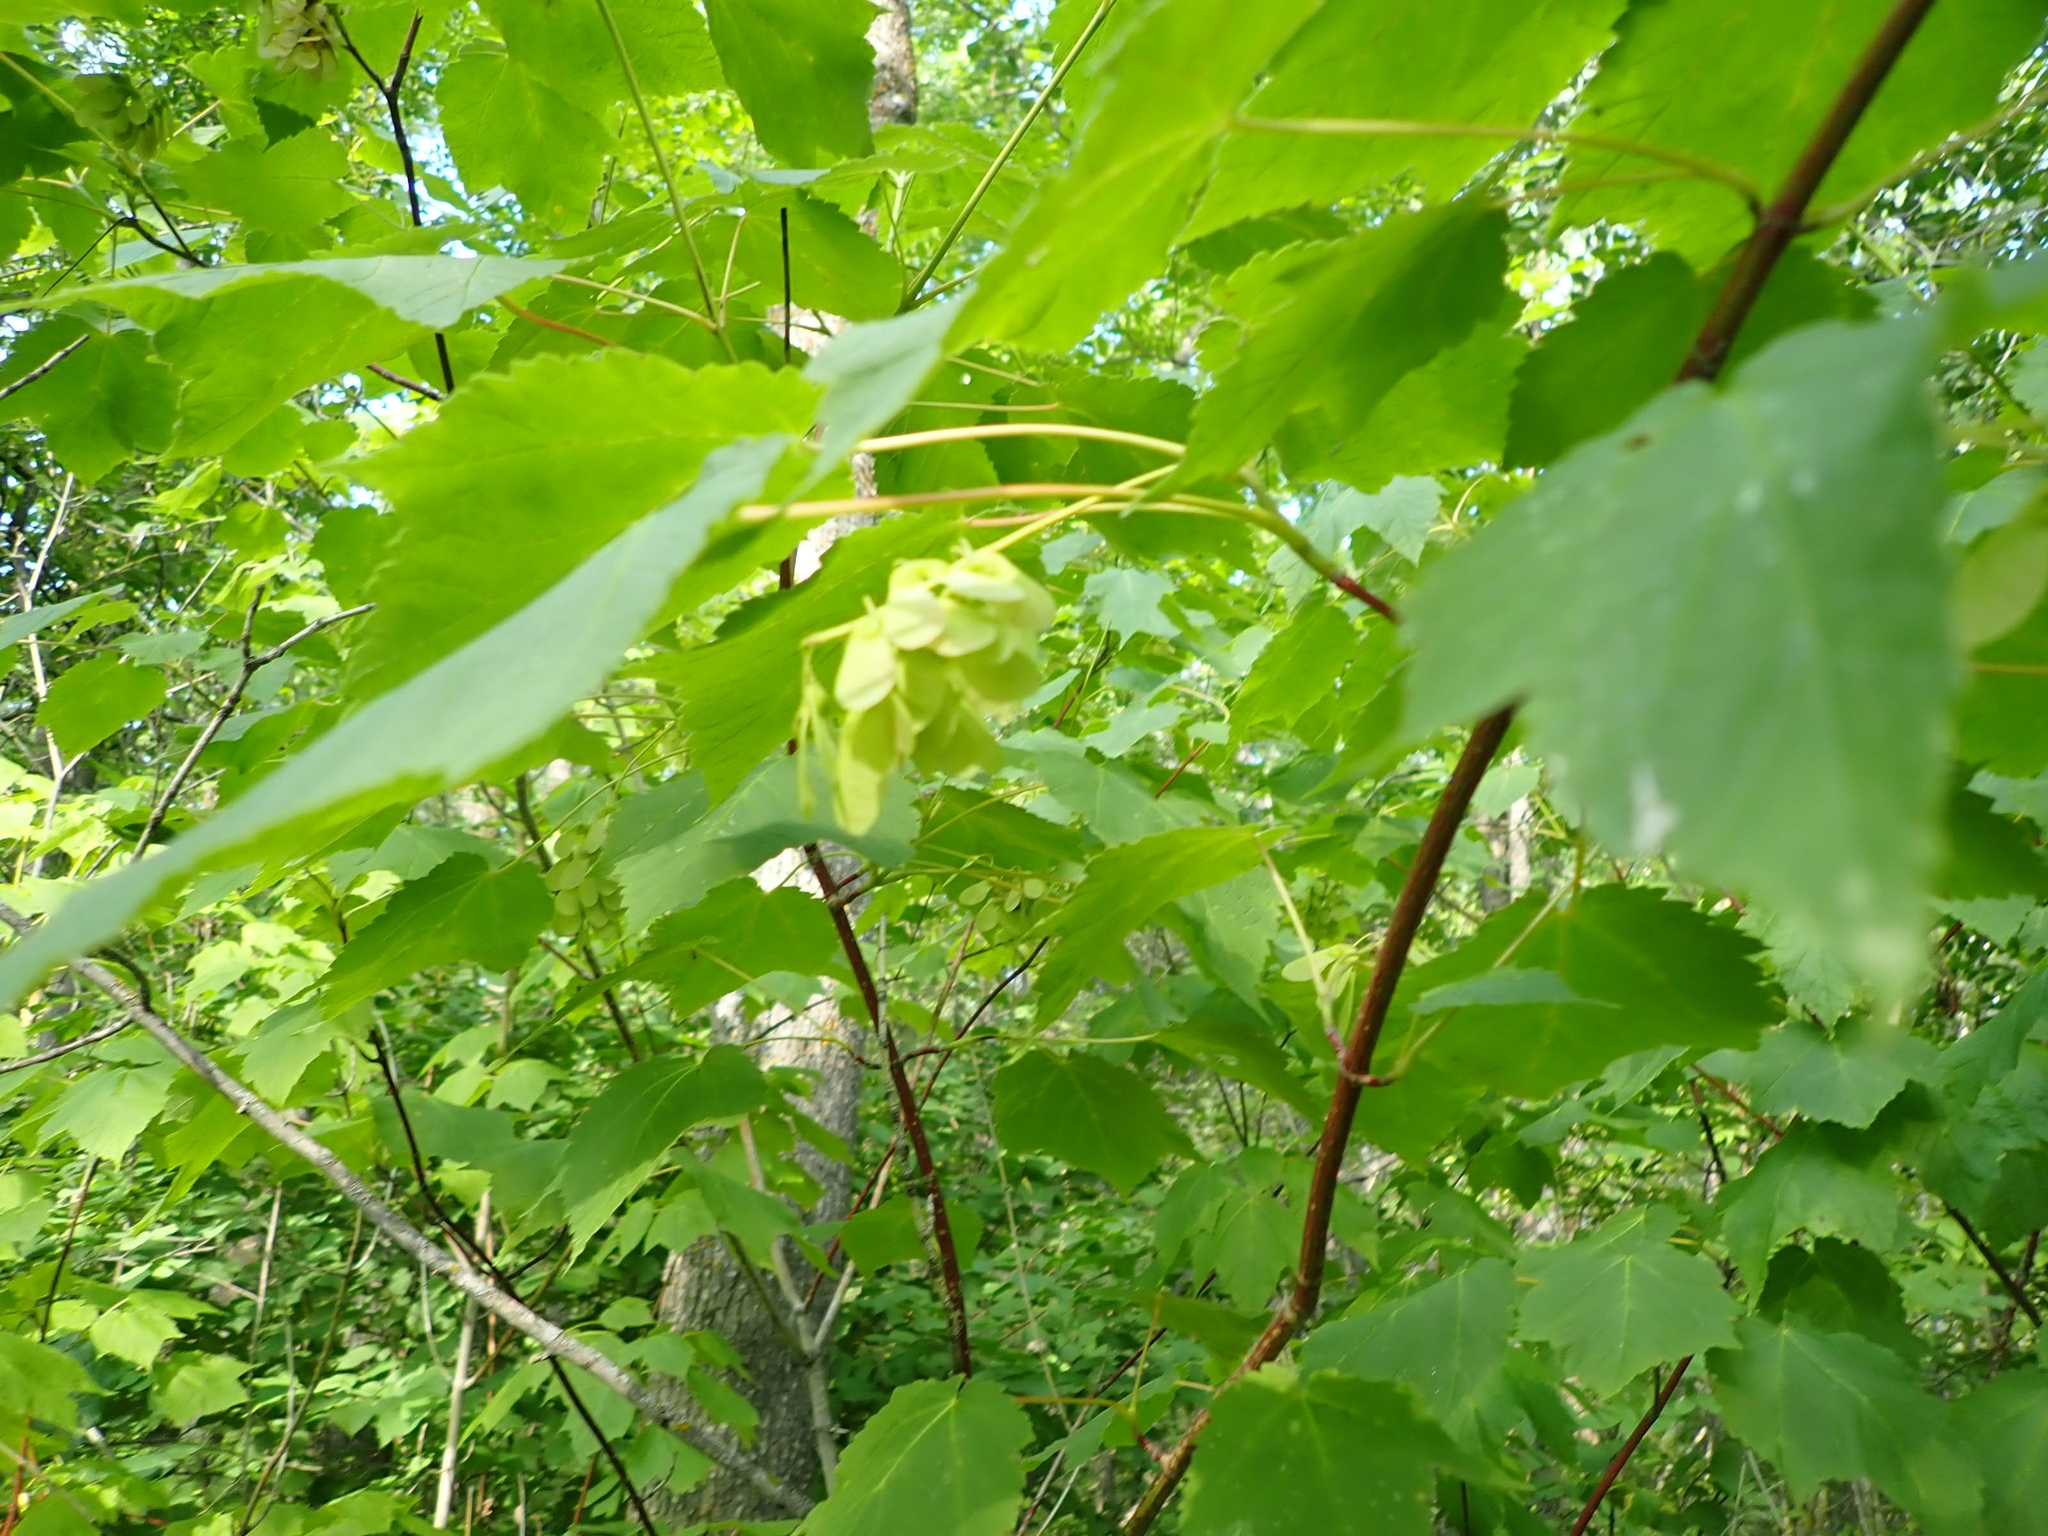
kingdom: Plantae
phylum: Tracheophyta
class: Magnoliopsida
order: Sapindales
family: Sapindaceae
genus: Acer
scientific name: Acer spicatum
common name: Mountain maple
